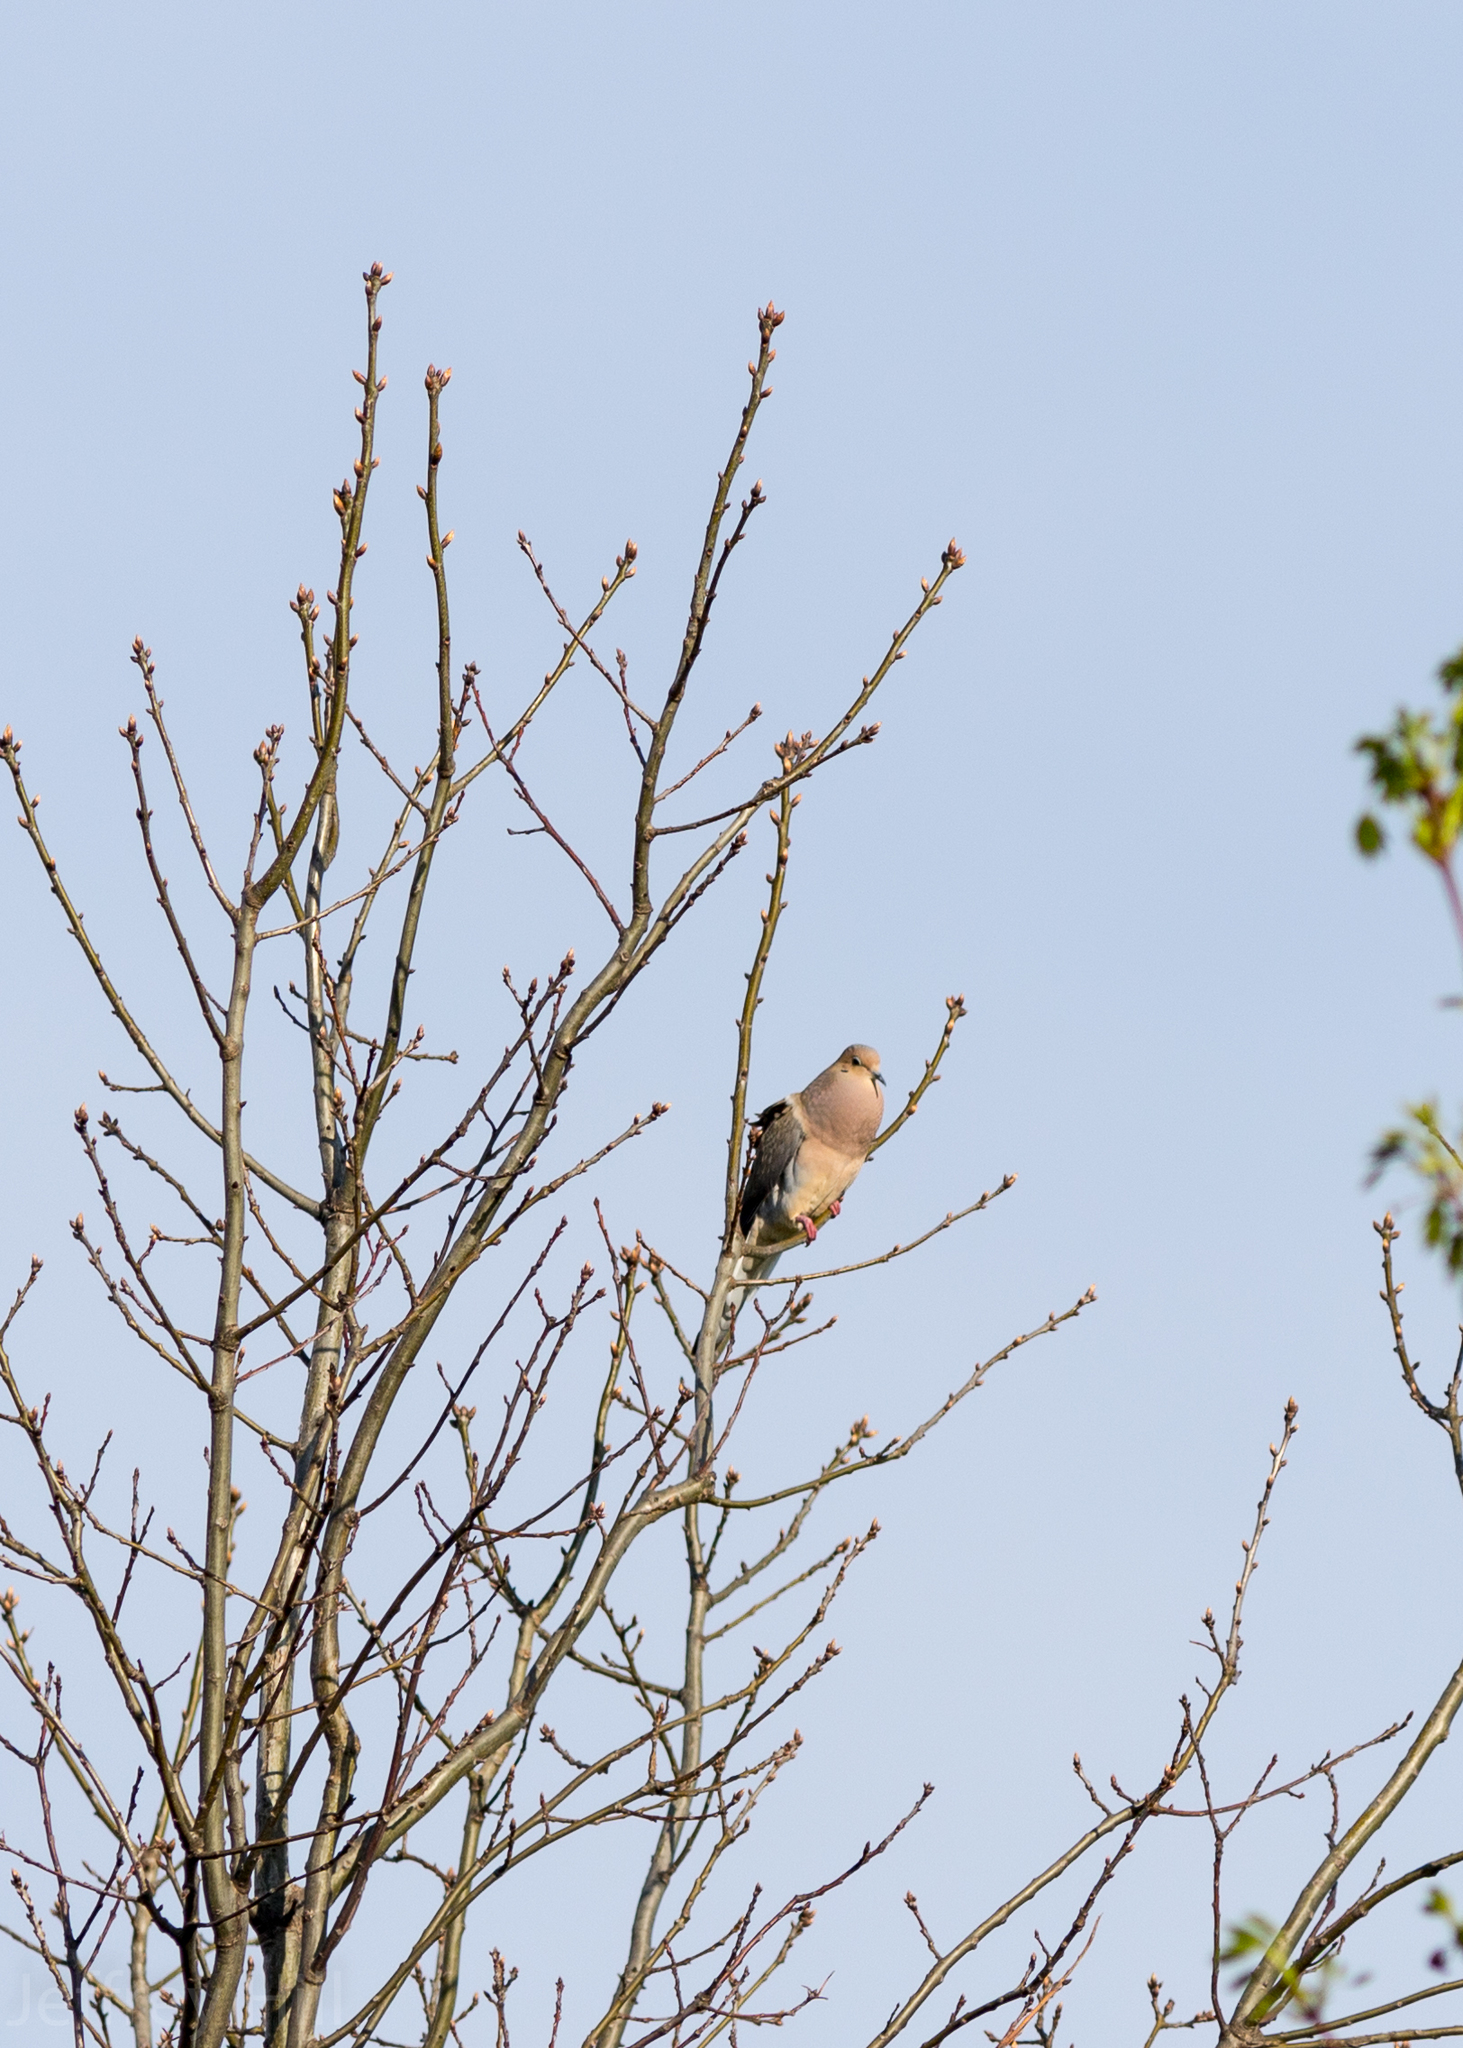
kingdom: Animalia
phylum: Chordata
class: Aves
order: Columbiformes
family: Columbidae
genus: Zenaida
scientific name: Zenaida macroura
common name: Mourning dove
